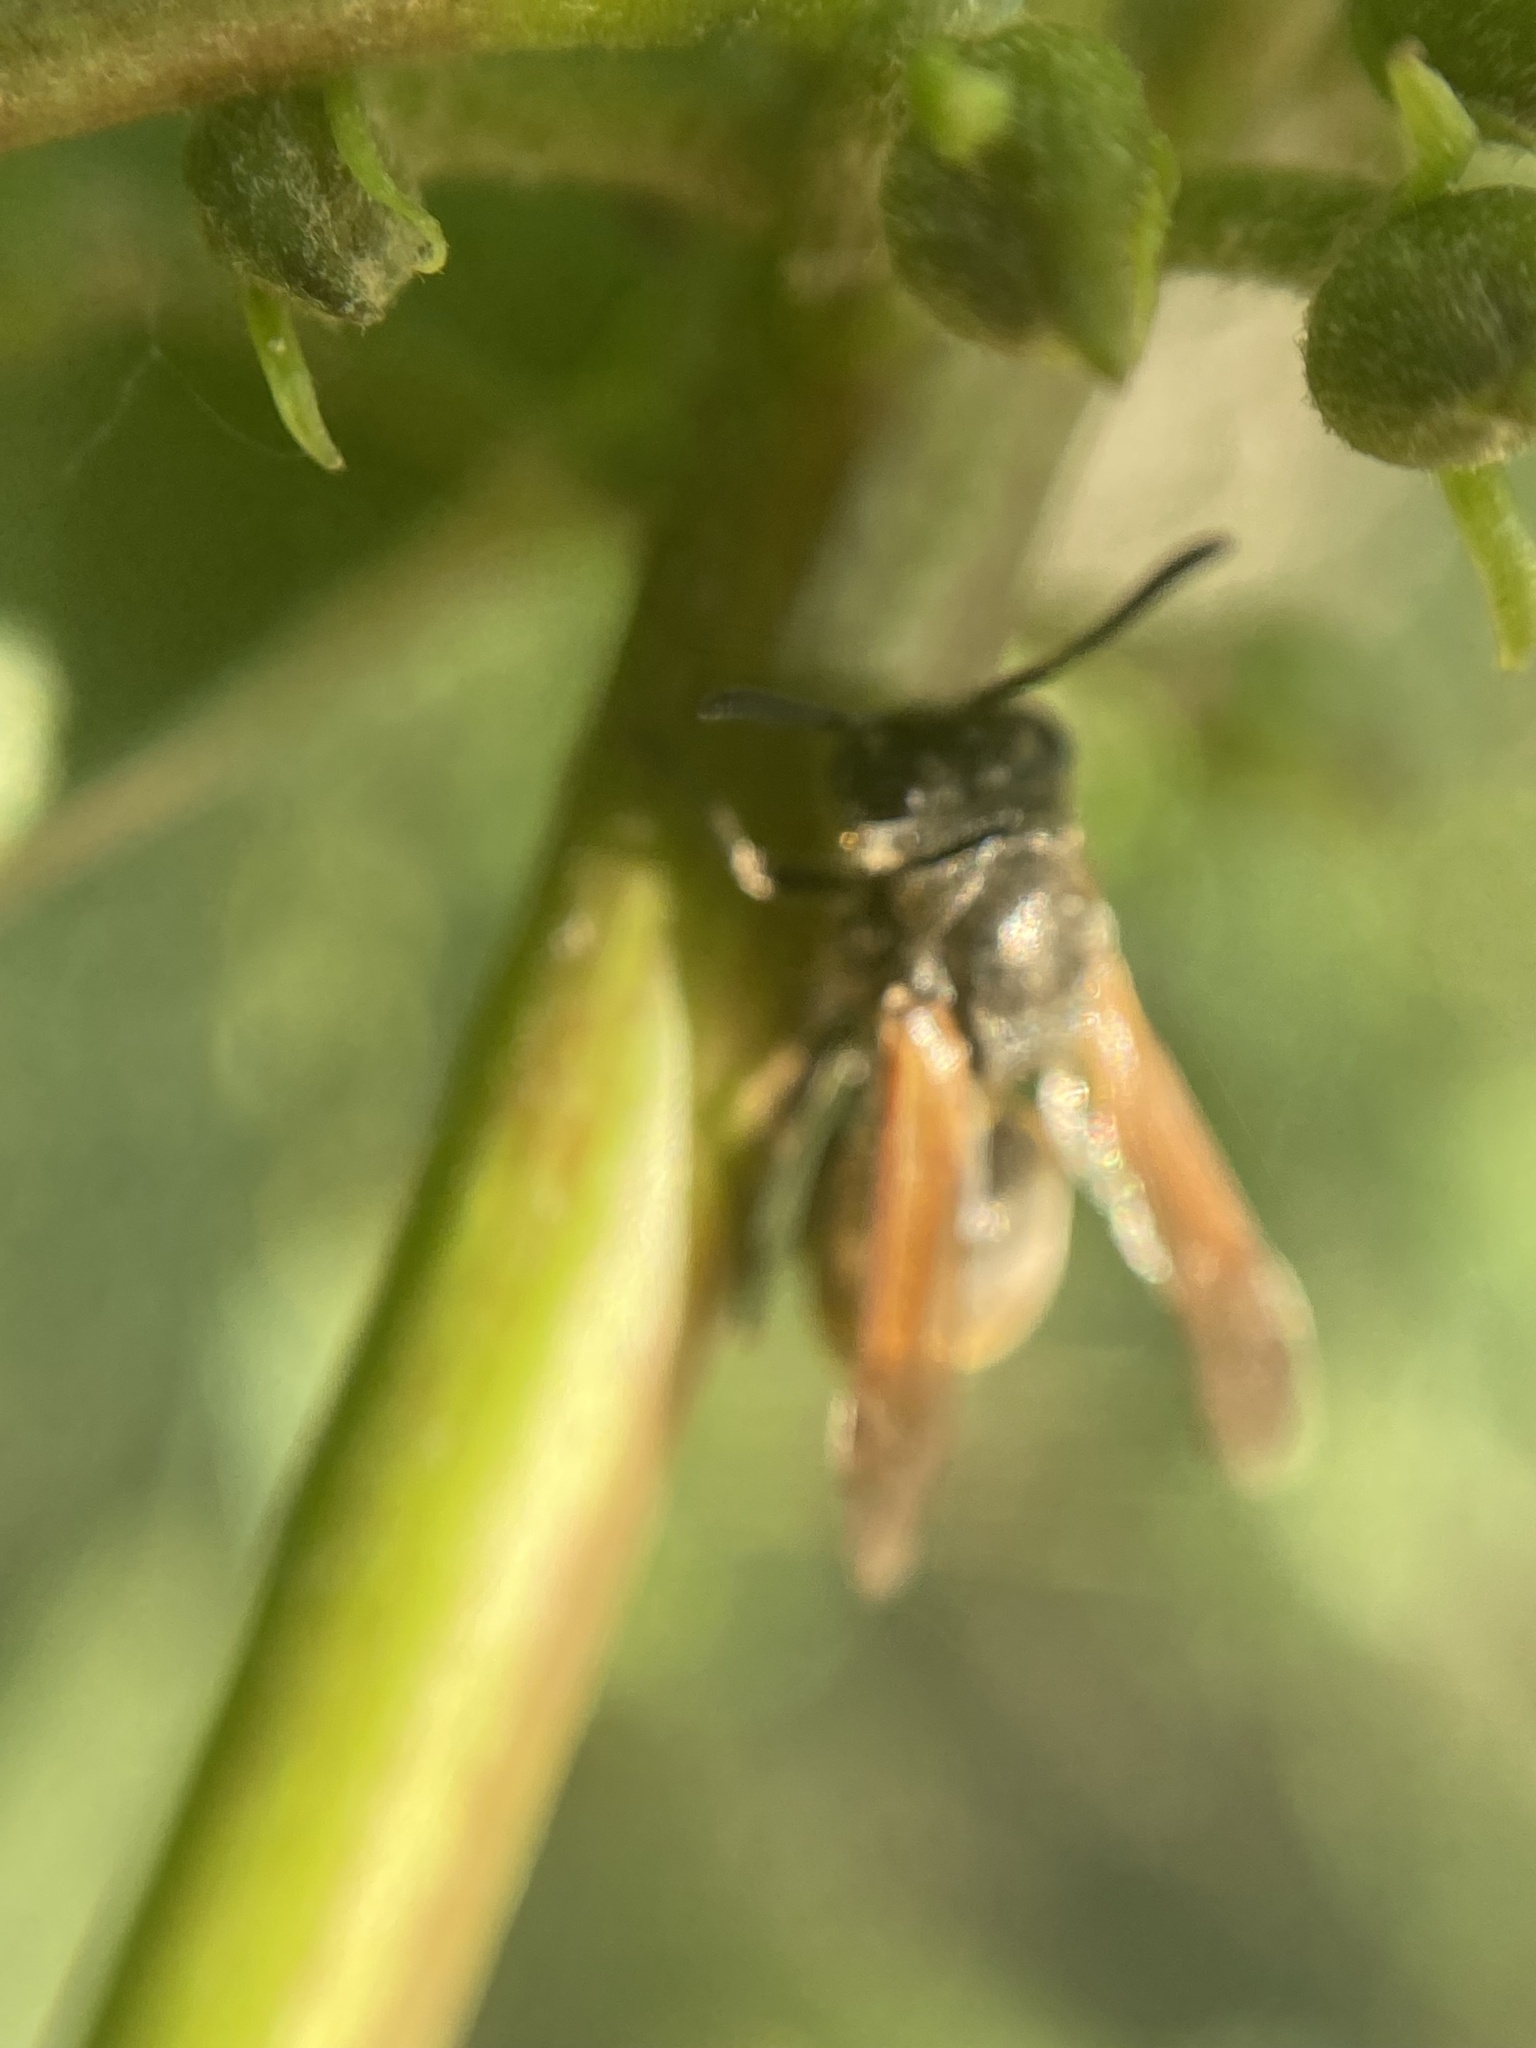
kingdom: Animalia
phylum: Arthropoda
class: Insecta
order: Hymenoptera
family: Vespidae
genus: Brachygastra
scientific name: Brachygastra lecheguana
